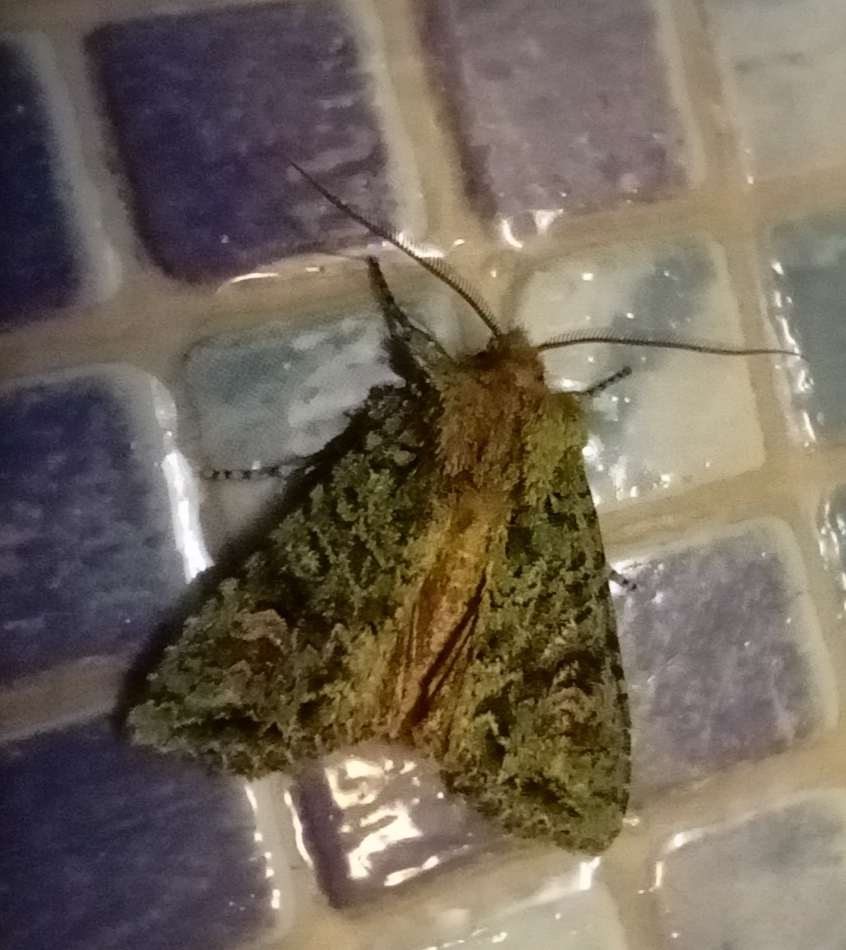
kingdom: Animalia
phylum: Arthropoda
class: Insecta
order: Lepidoptera
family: Noctuidae
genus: Ichneutica
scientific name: Ichneutica
